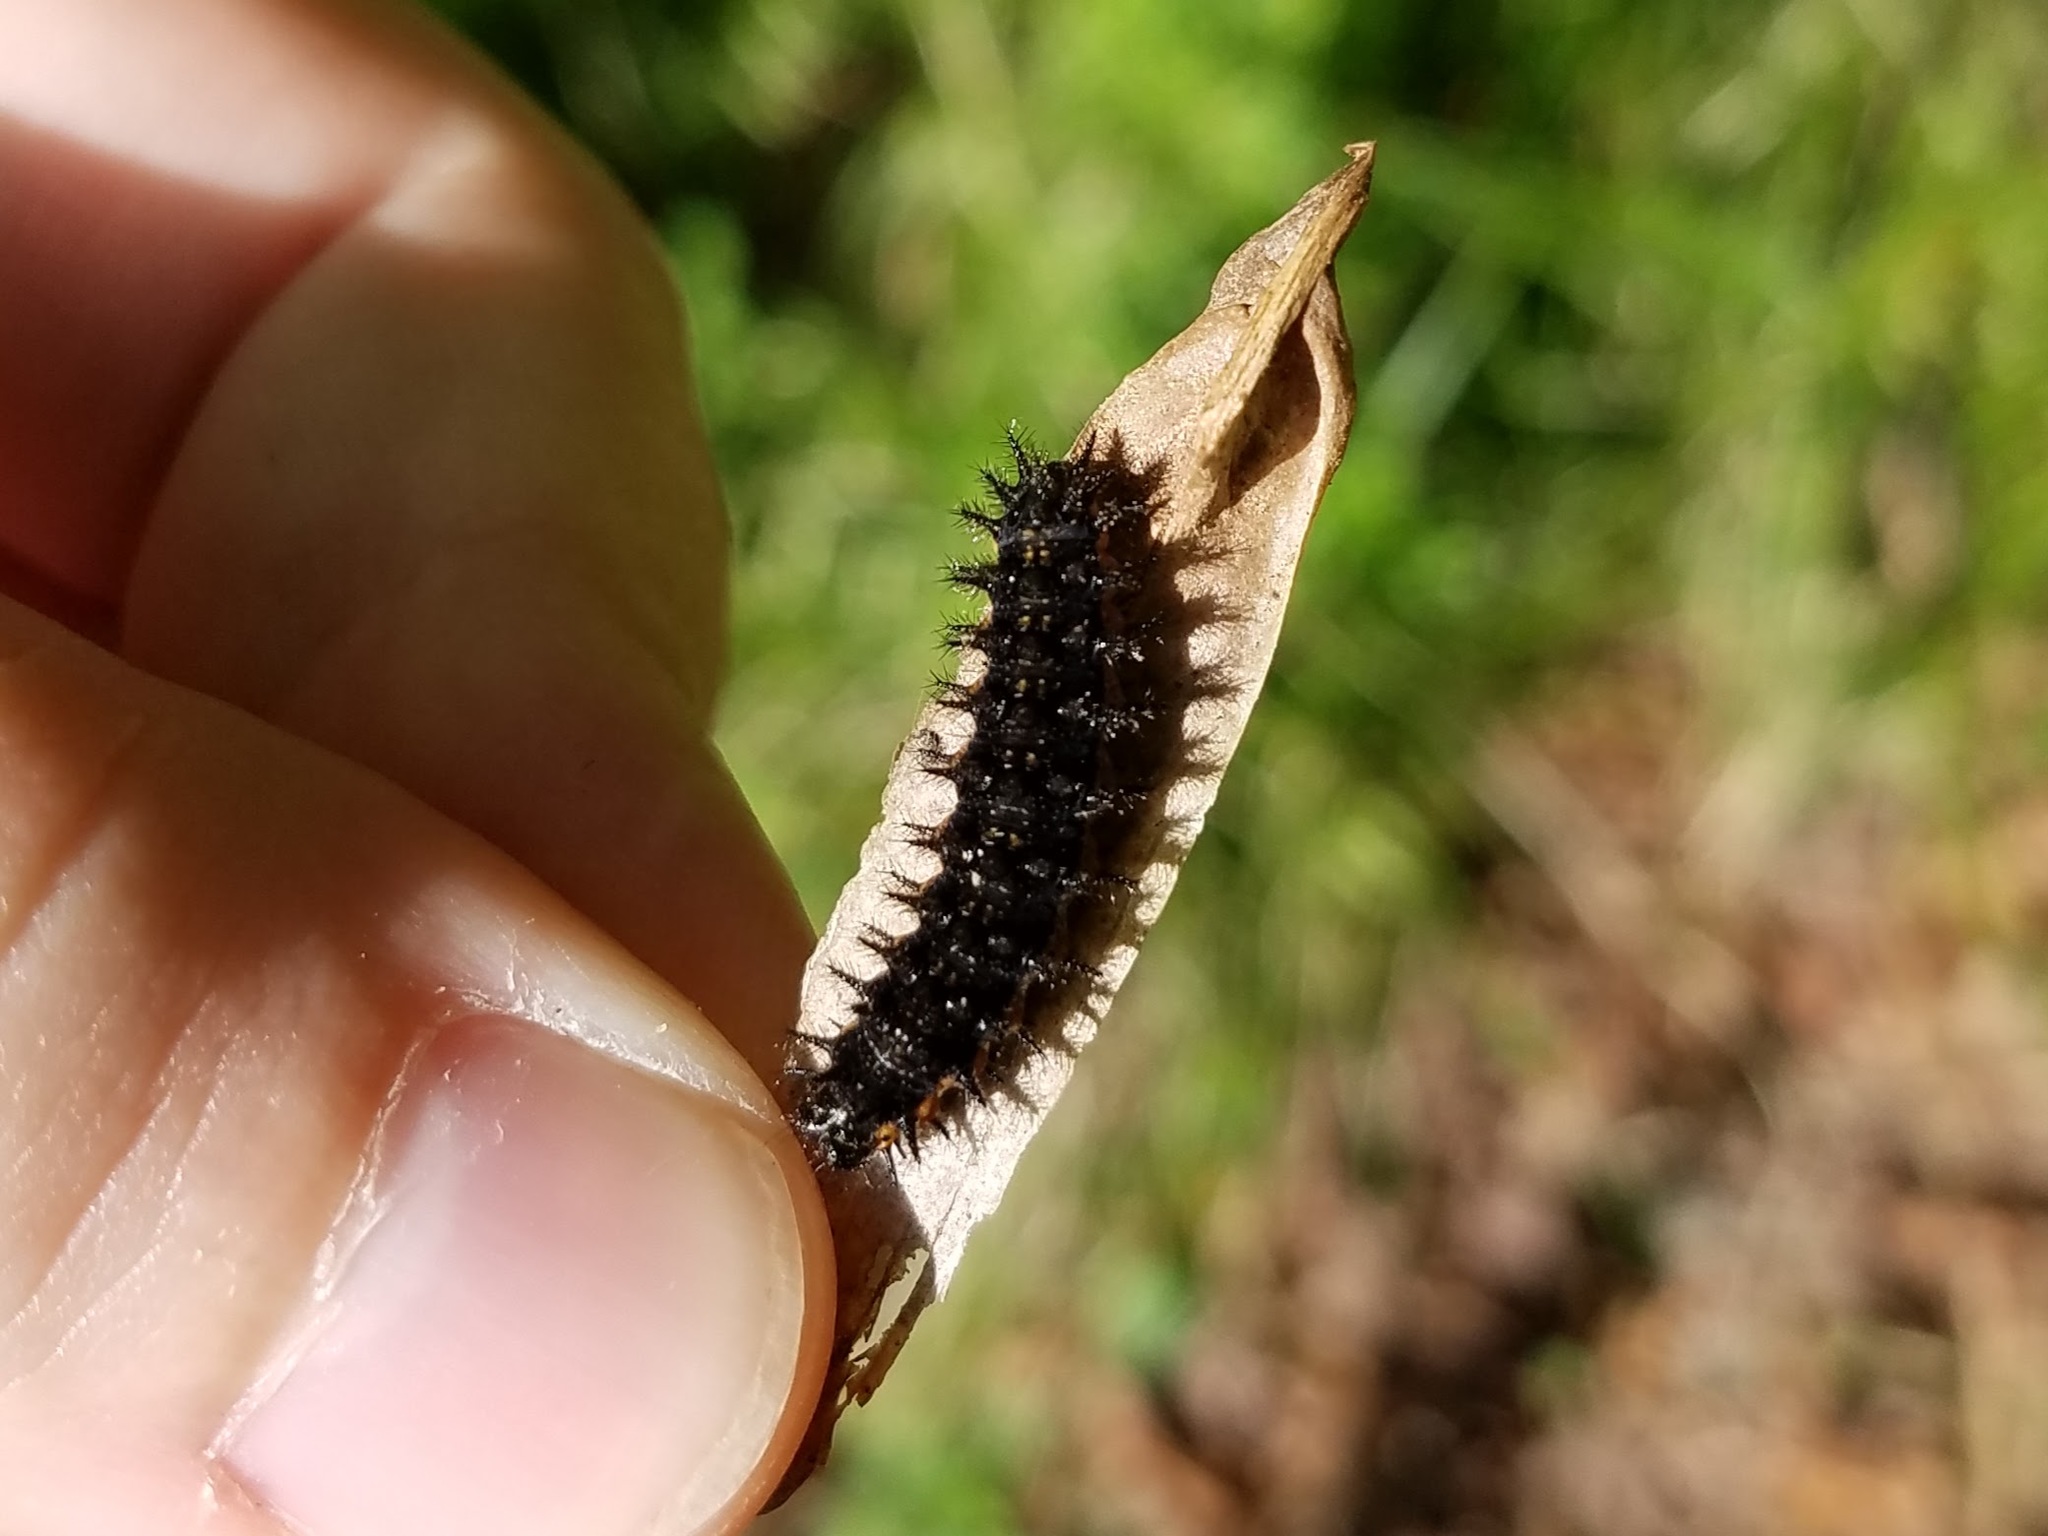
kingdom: Animalia
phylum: Arthropoda
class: Insecta
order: Lepidoptera
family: Nymphalidae
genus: Chlosyne
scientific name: Chlosyne nycteis
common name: Silvery checkerspot
